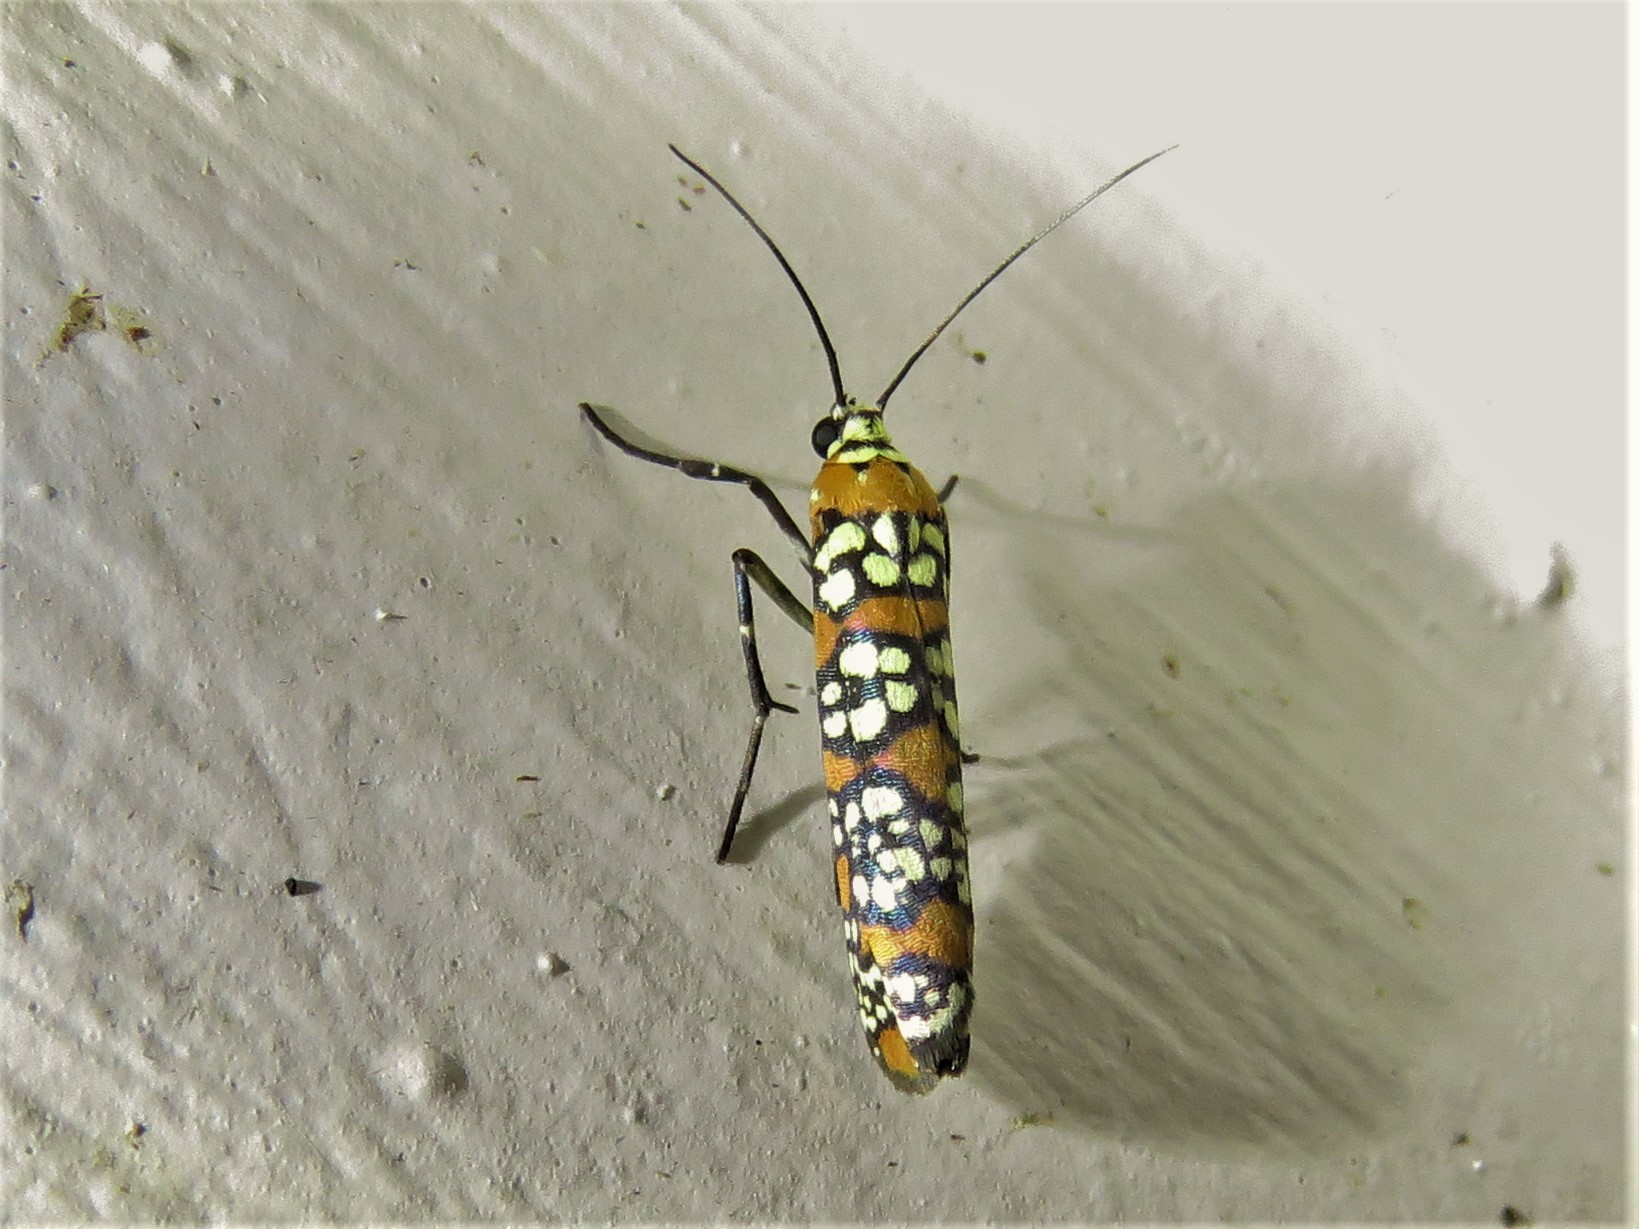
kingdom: Animalia
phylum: Arthropoda
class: Insecta
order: Lepidoptera
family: Attevidae
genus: Atteva
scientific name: Atteva punctella
